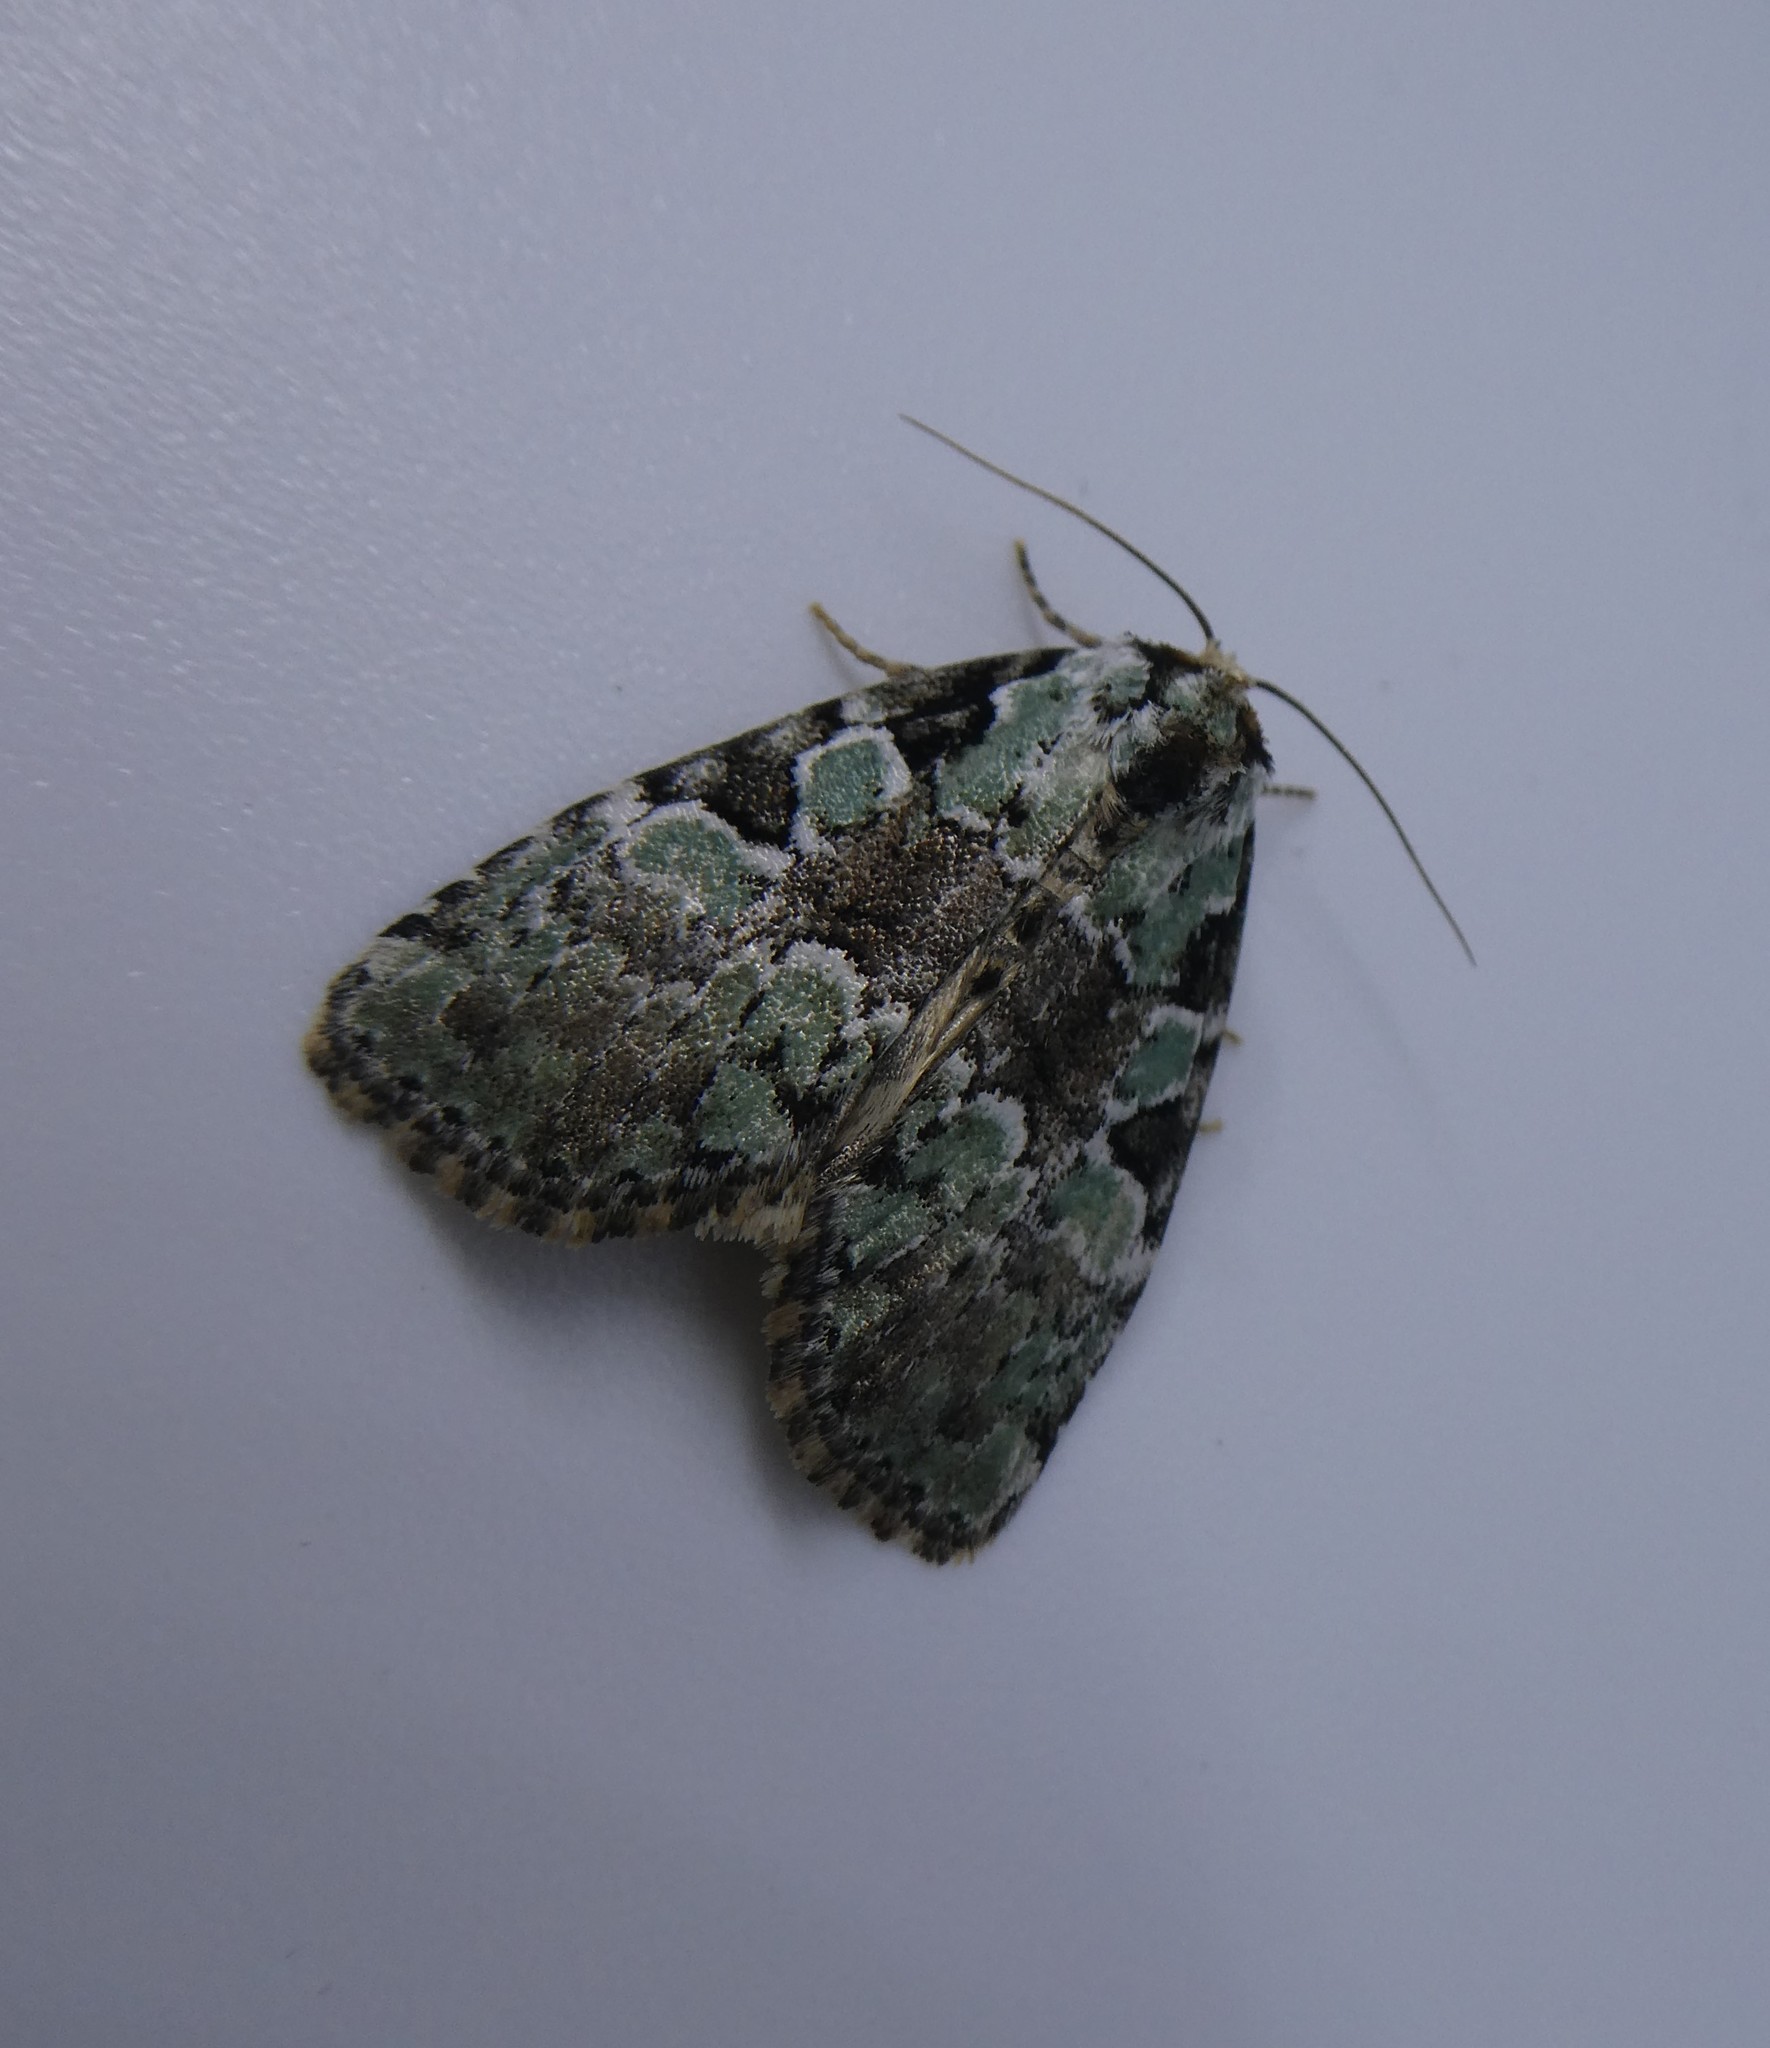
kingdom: Animalia
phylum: Arthropoda
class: Insecta
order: Lepidoptera
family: Noctuidae
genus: Leuconycta
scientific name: Leuconycta lepidula
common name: Marbled-green leuconycta moth
